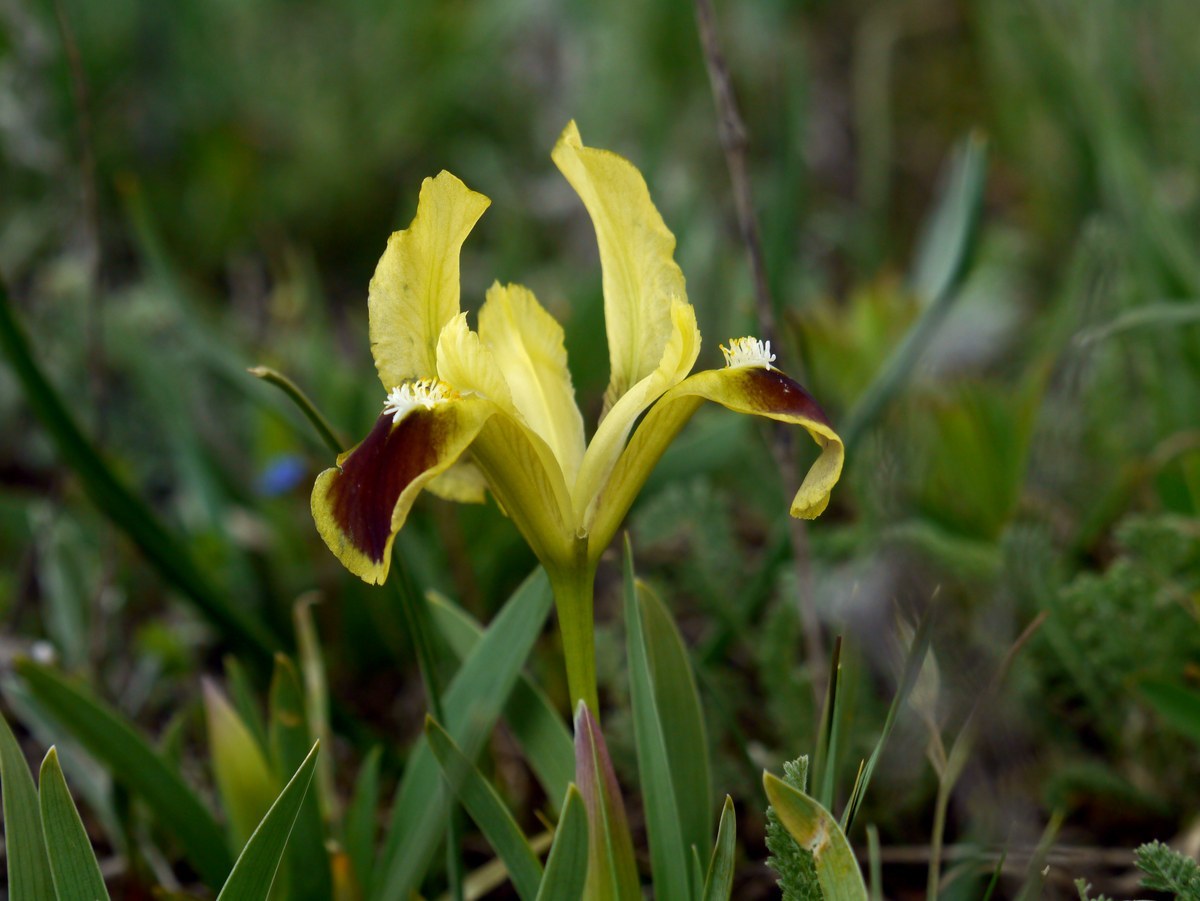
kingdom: Plantae
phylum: Tracheophyta
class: Liliopsida
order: Asparagales
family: Iridaceae
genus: Iris
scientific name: Iris pumila
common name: Dwarf iris
